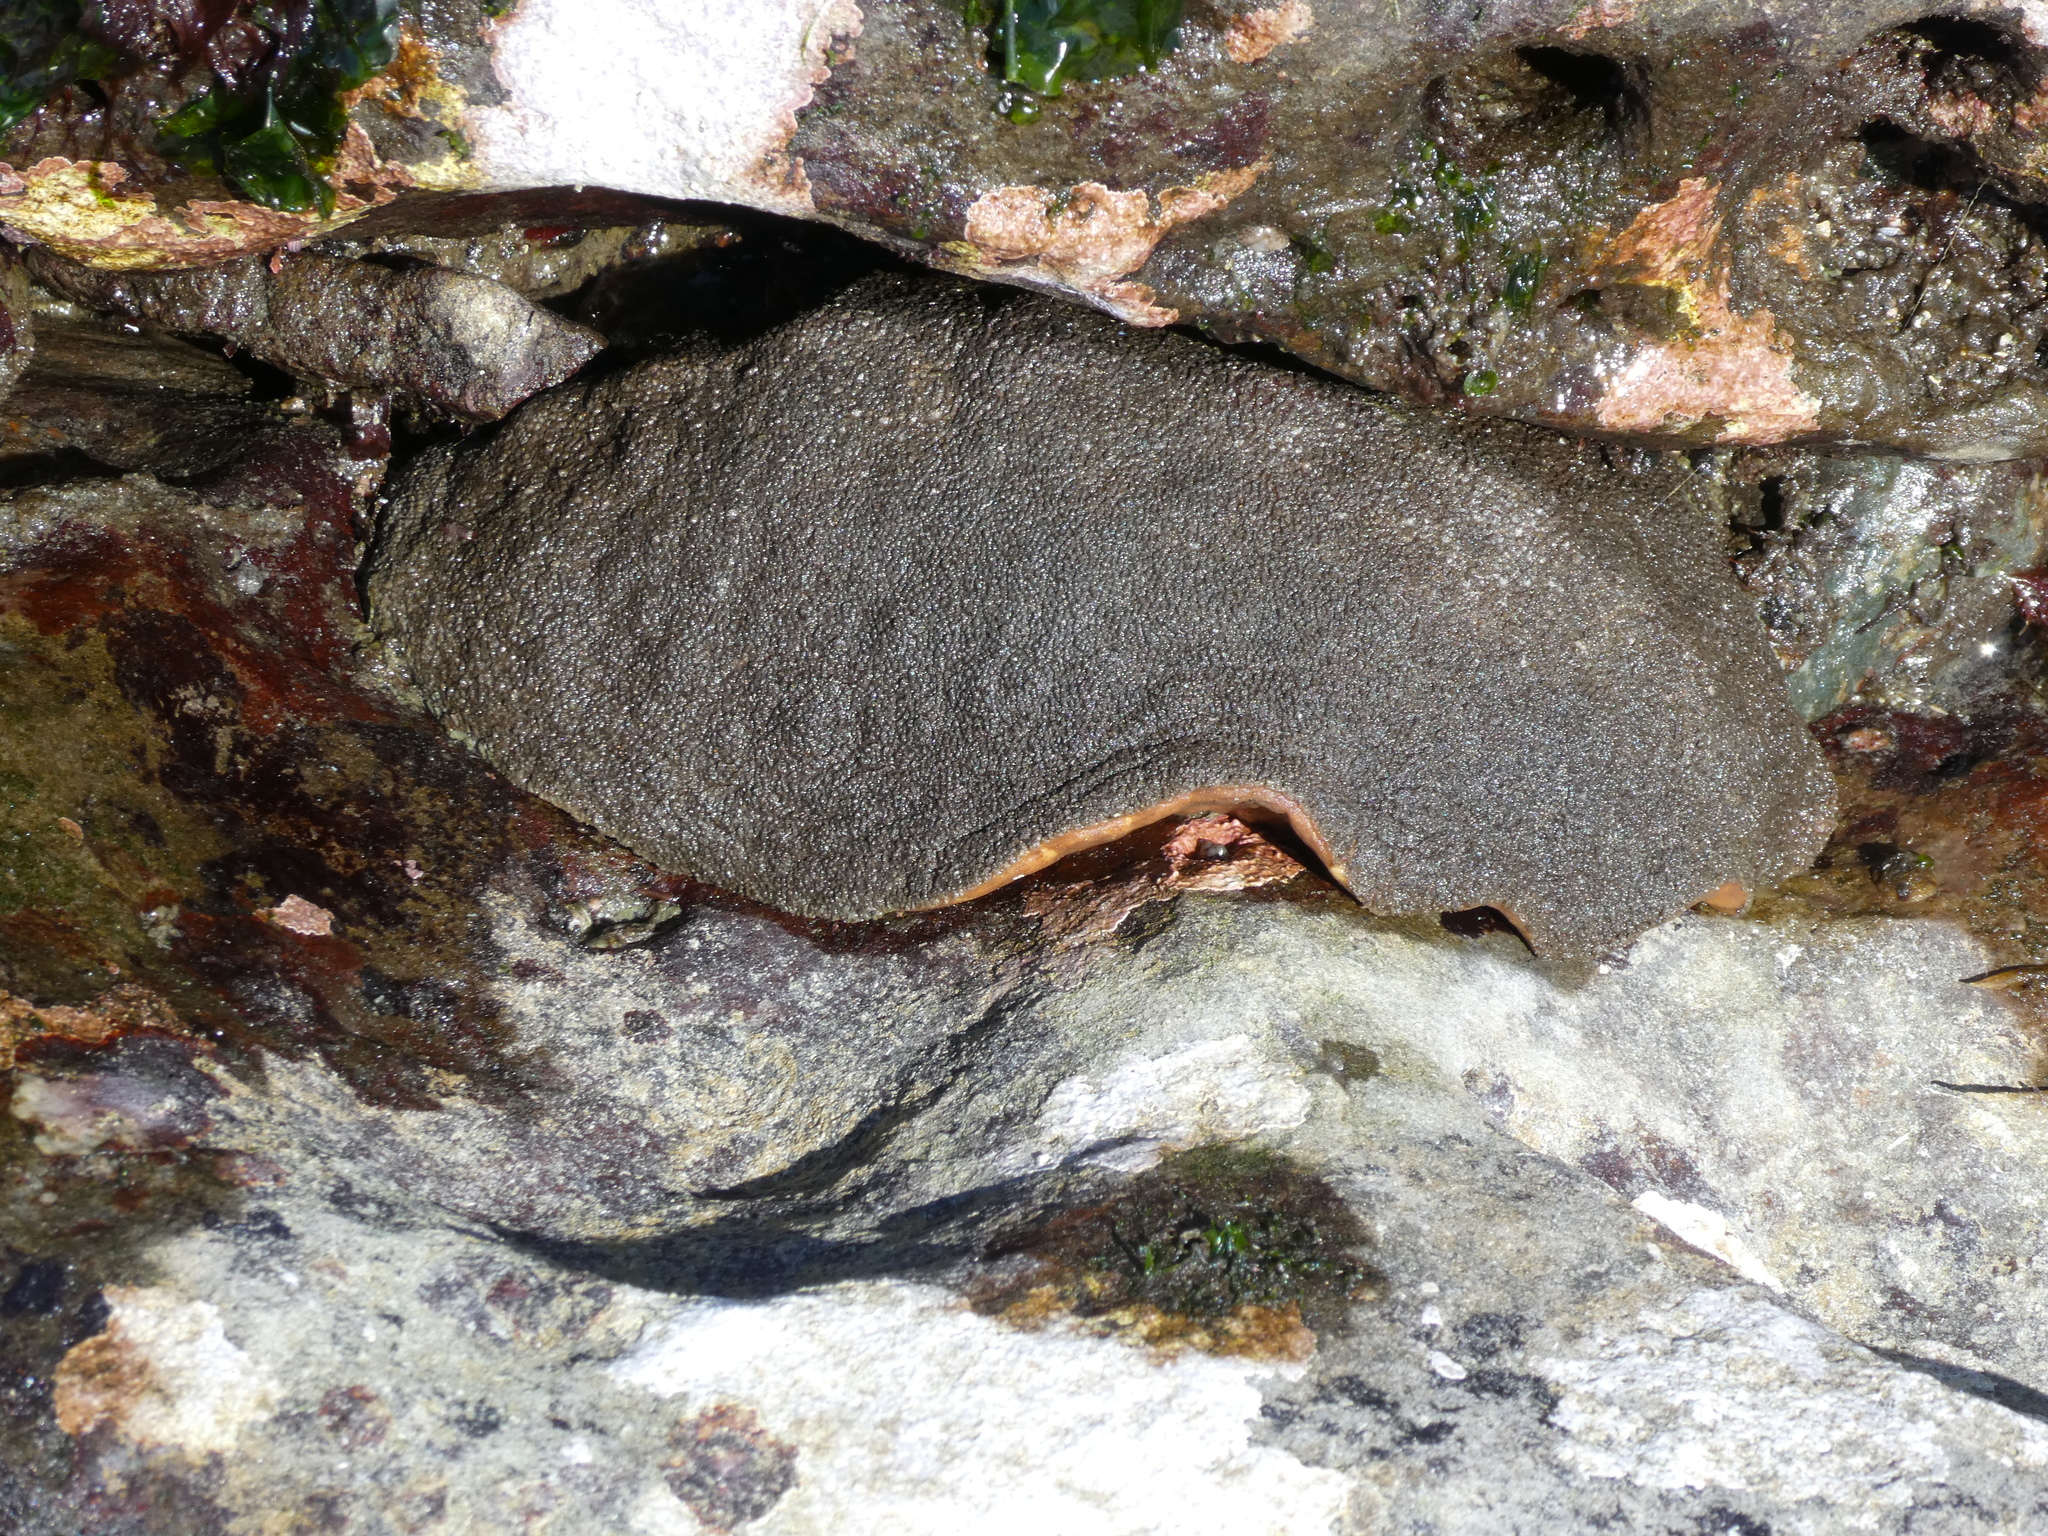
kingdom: Animalia
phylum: Mollusca
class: Polyplacophora
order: Chitonida
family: Acanthochitonidae
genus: Cryptochiton
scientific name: Cryptochiton stelleri
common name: Giant pacific chiton
